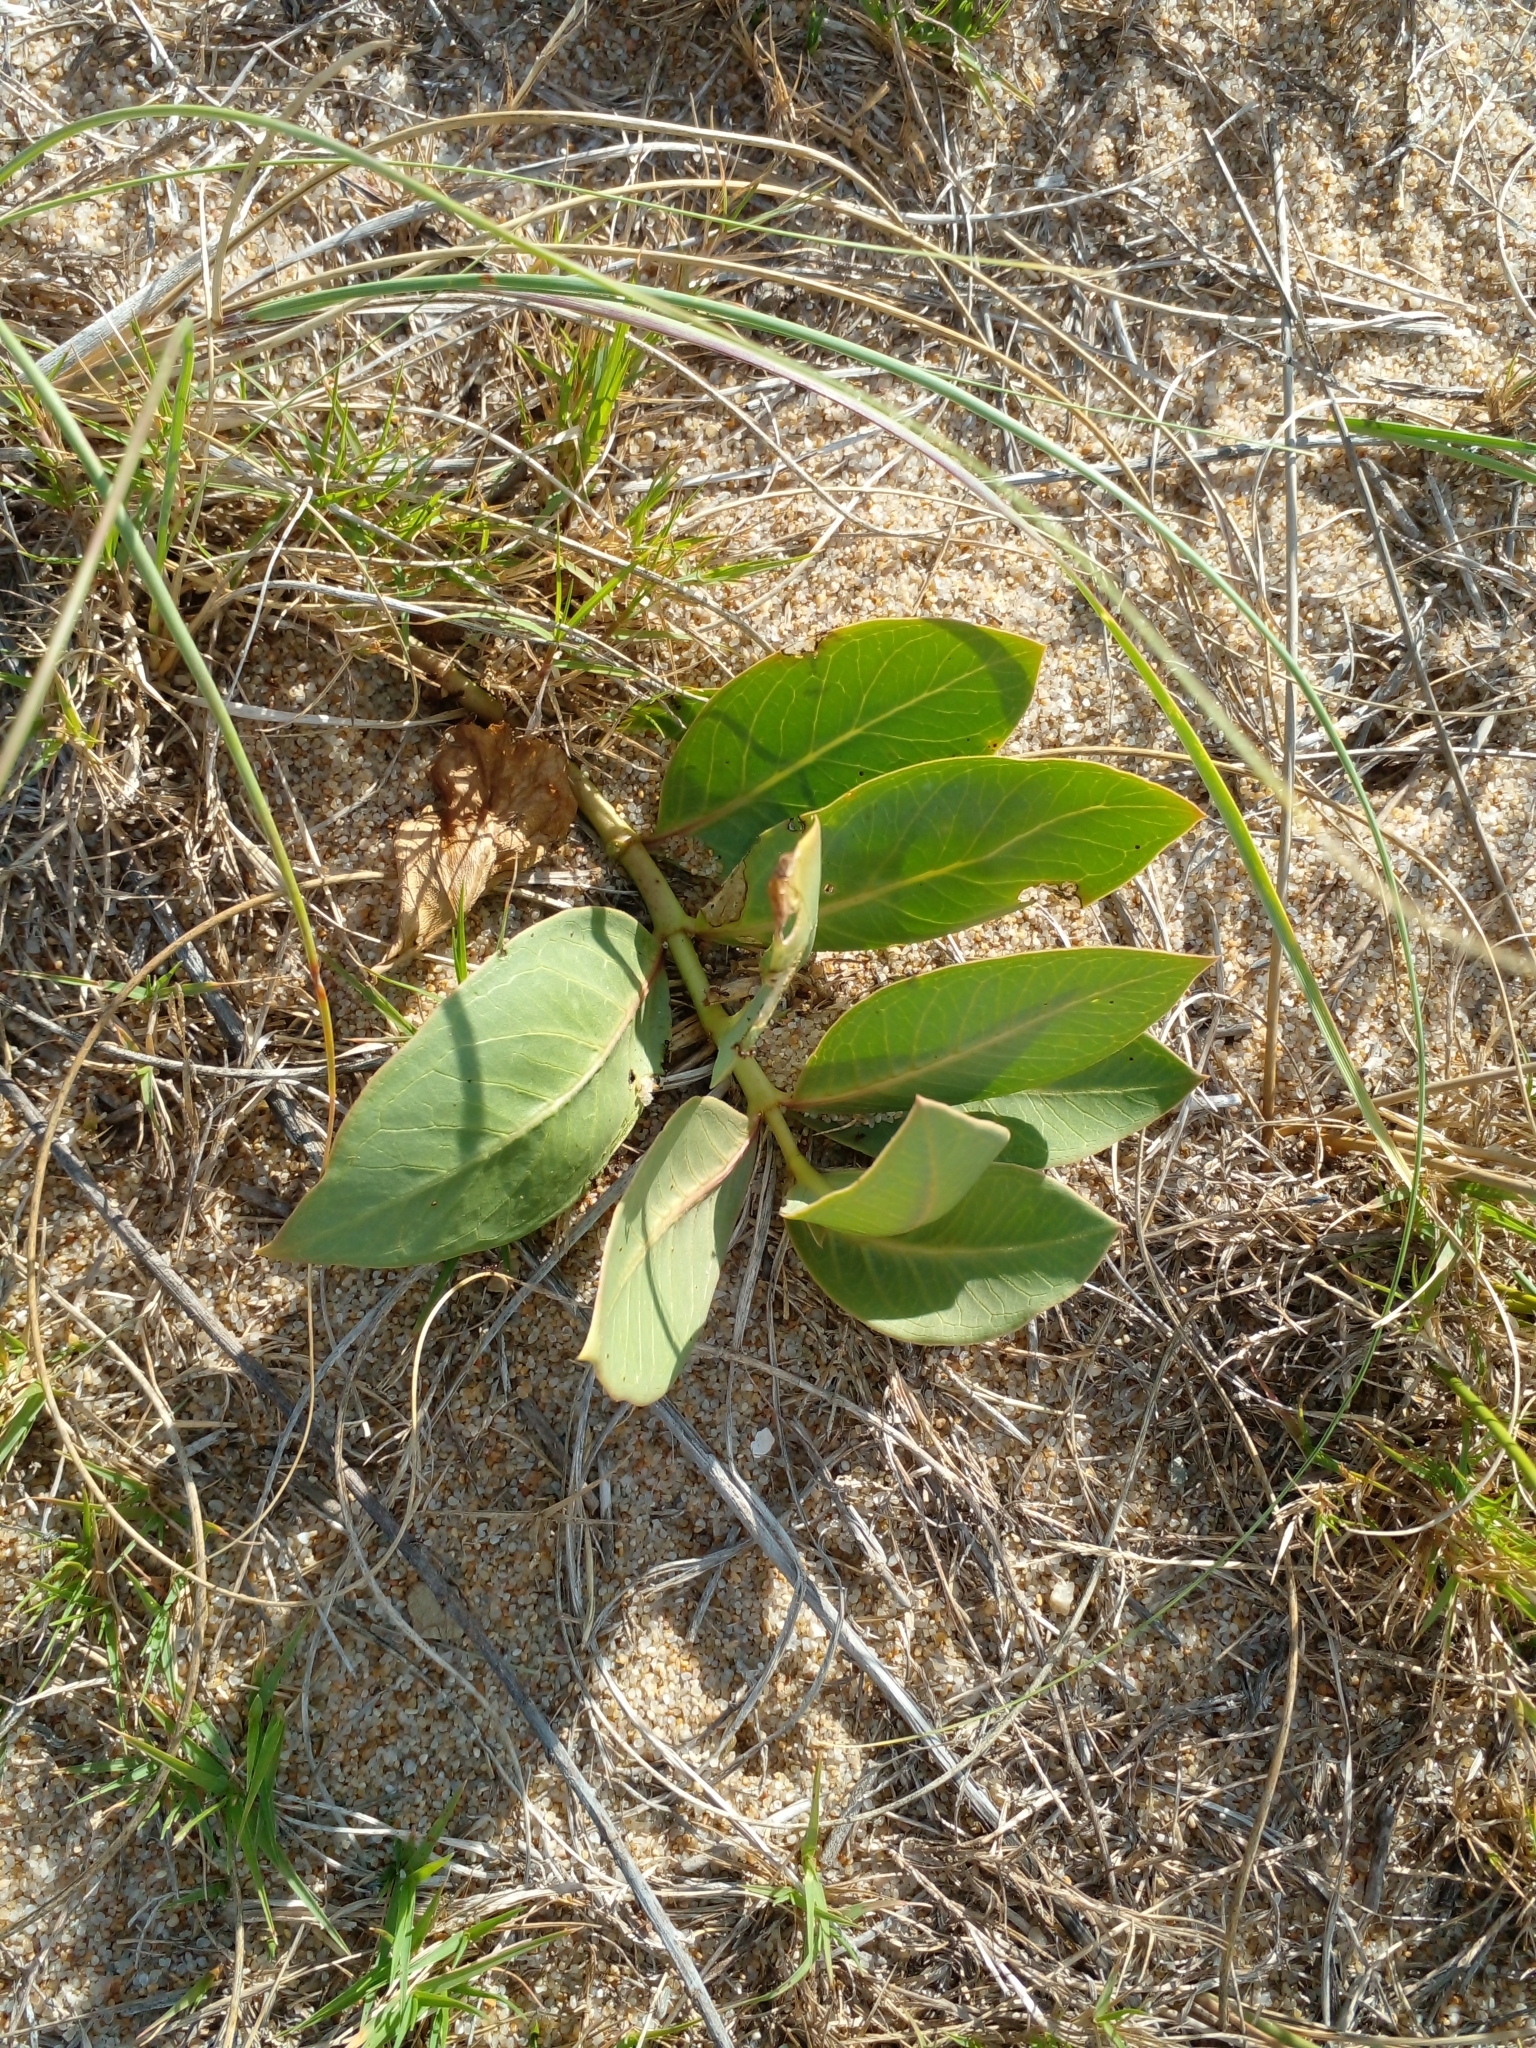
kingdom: Plantae
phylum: Tracheophyta
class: Magnoliopsida
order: Gentianales
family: Apocynaceae
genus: Asclepias
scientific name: Asclepias candida
